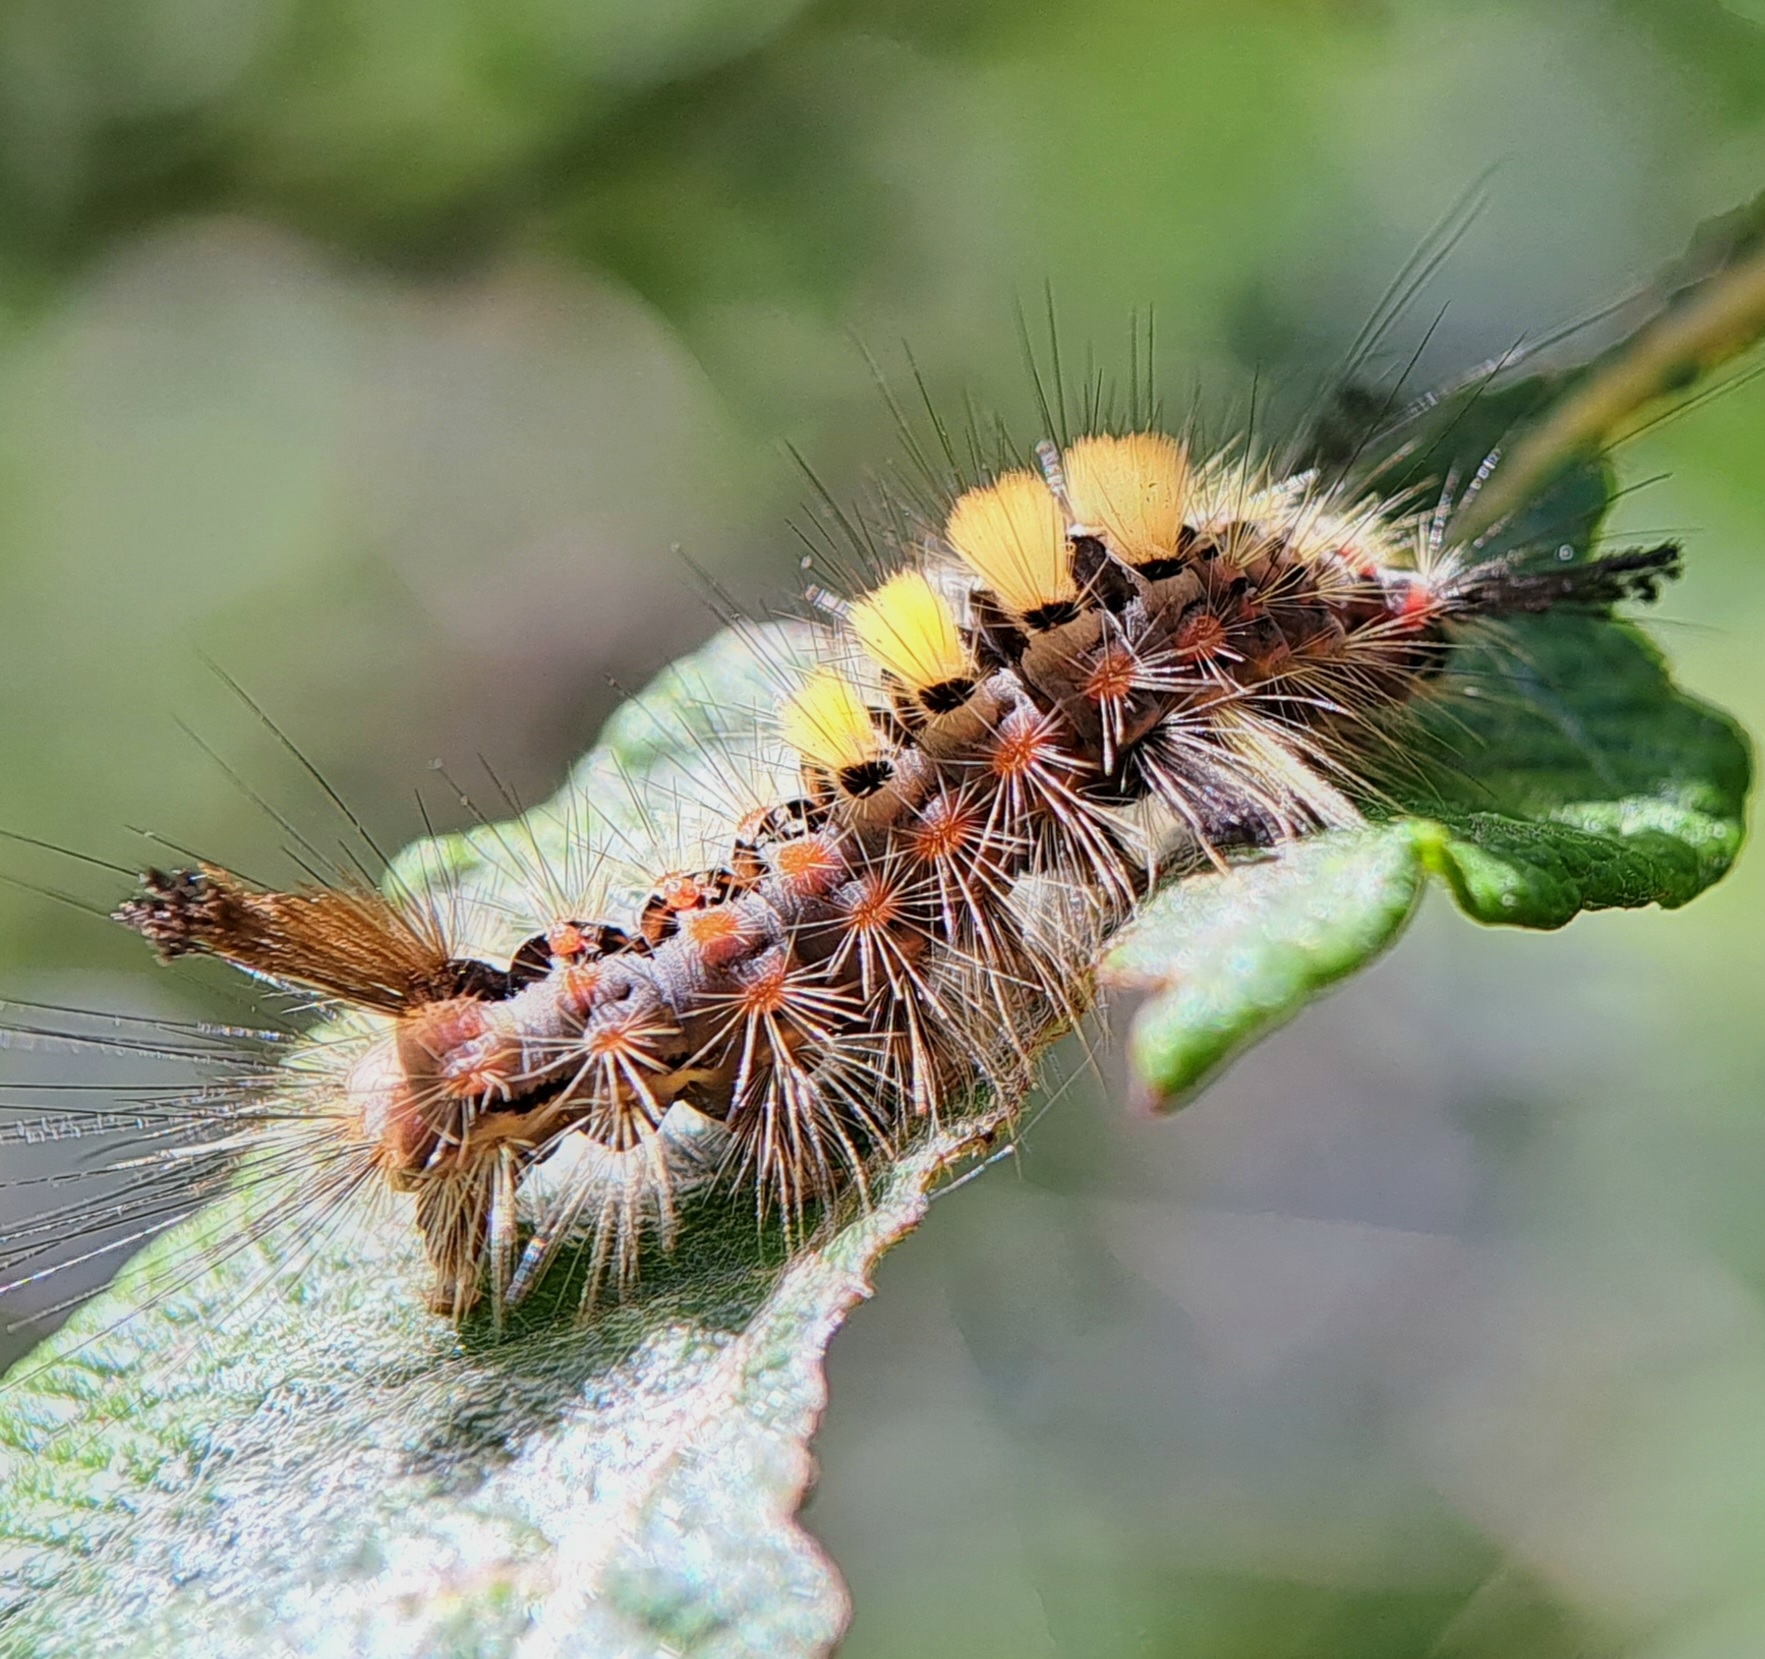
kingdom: Animalia
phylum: Arthropoda
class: Insecta
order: Lepidoptera
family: Erebidae
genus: Orgyia
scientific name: Orgyia antiqua
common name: Vapourer
